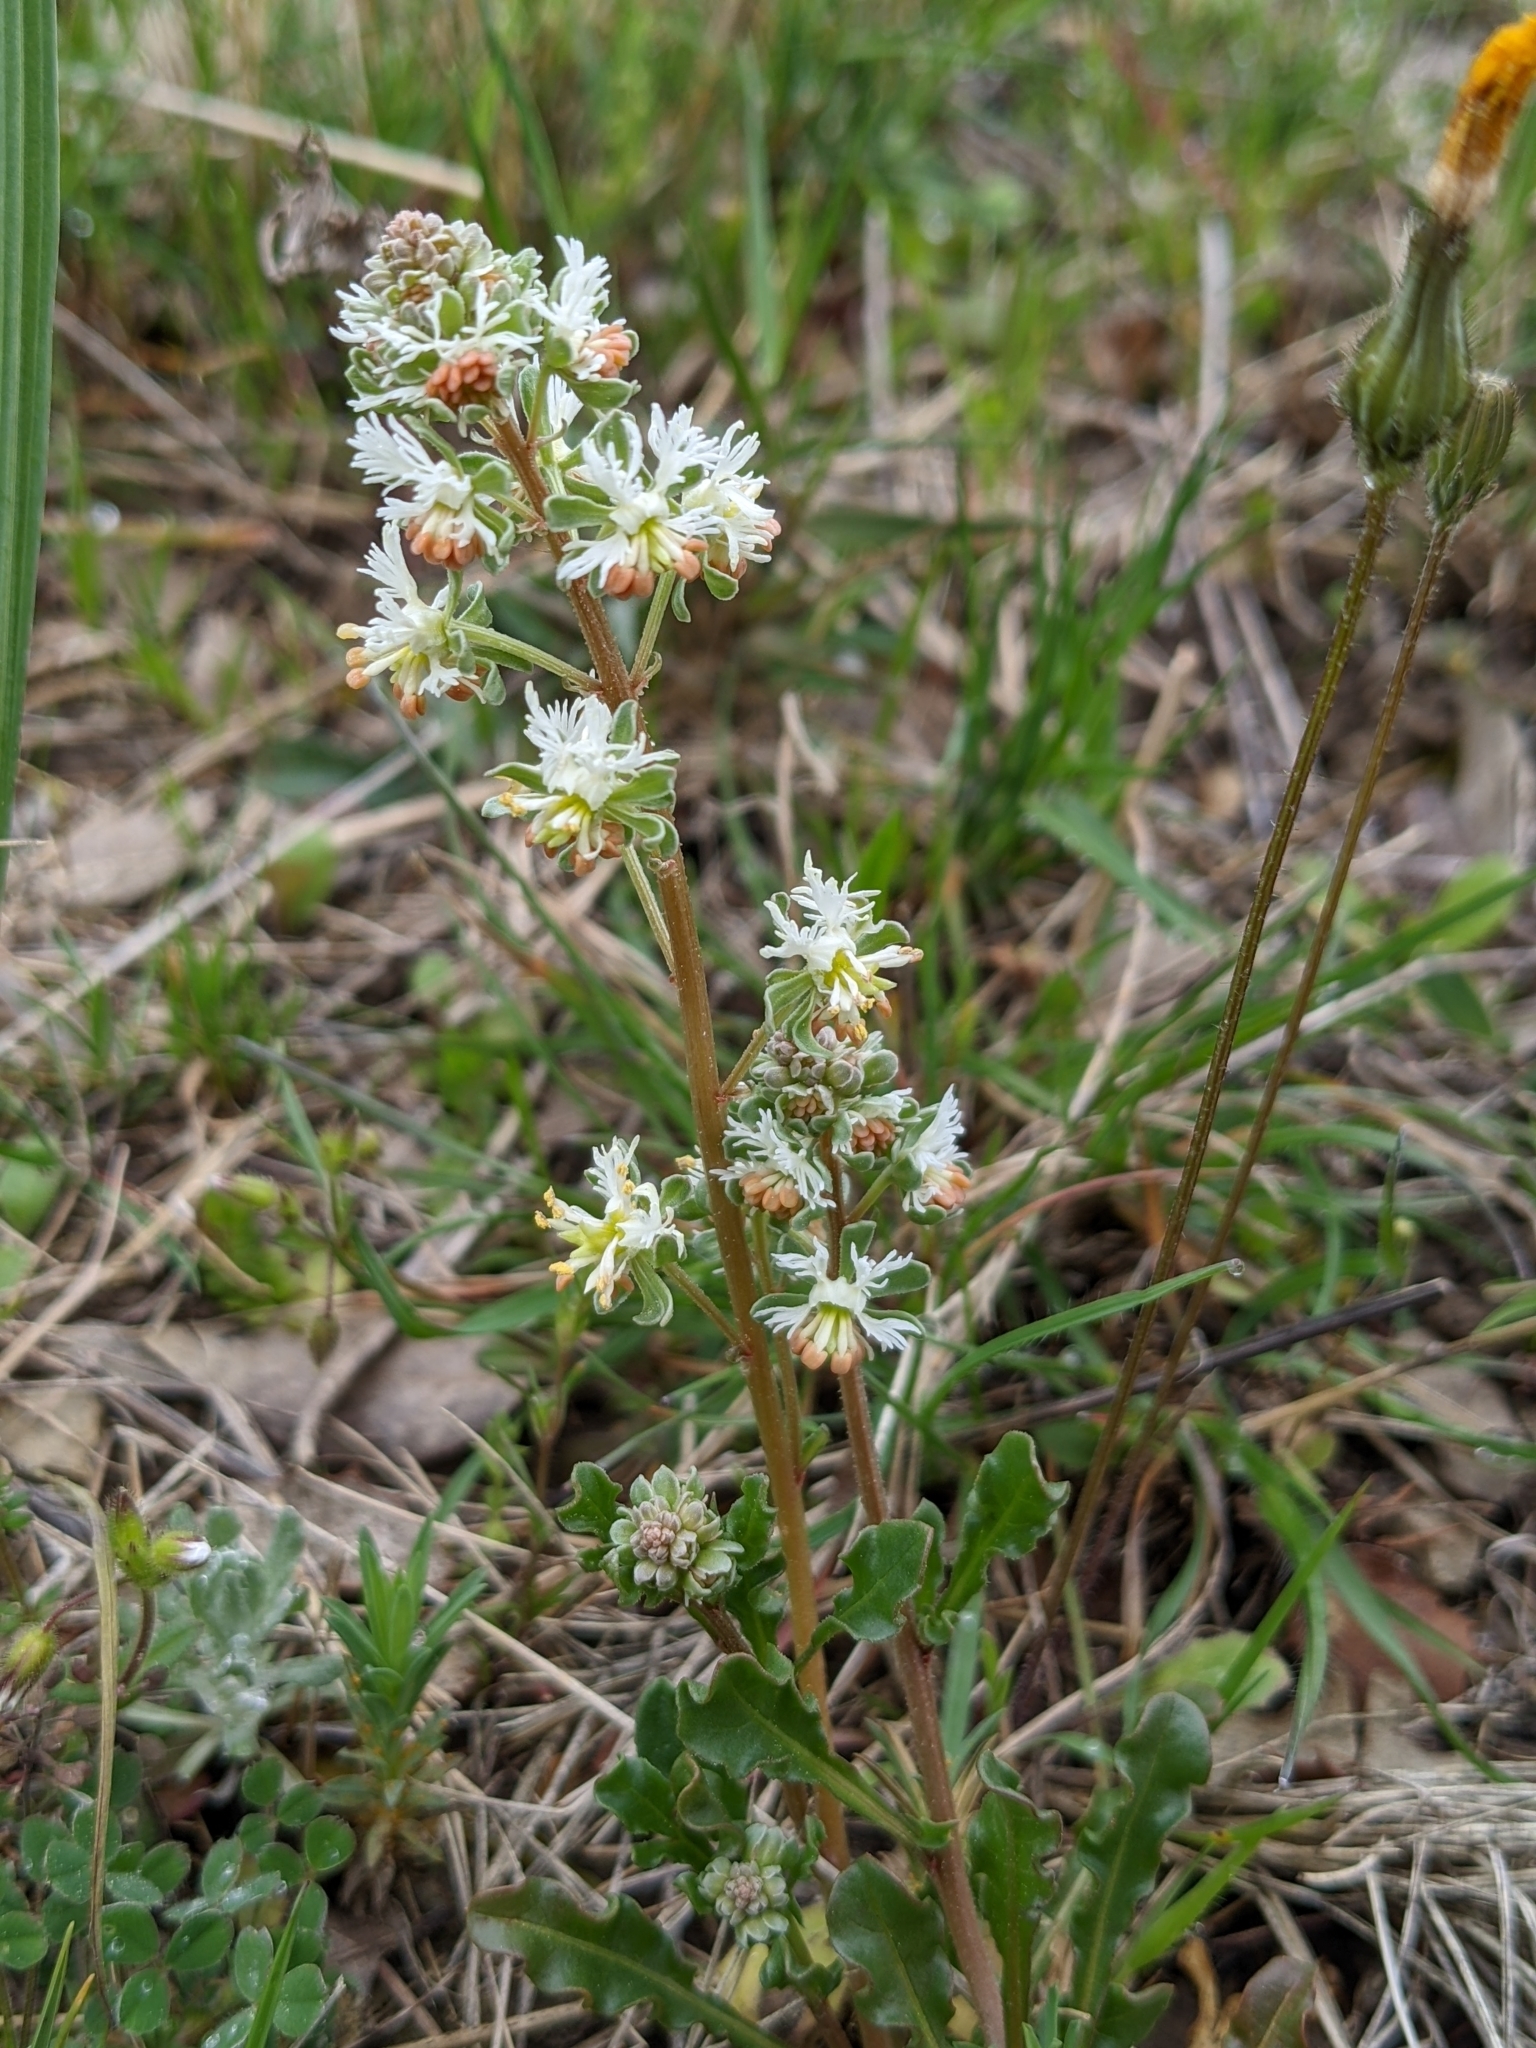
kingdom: Plantae
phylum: Tracheophyta
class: Magnoliopsida
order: Brassicales
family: Resedaceae
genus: Reseda
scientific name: Reseda phyteuma
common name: Corn mignonette
